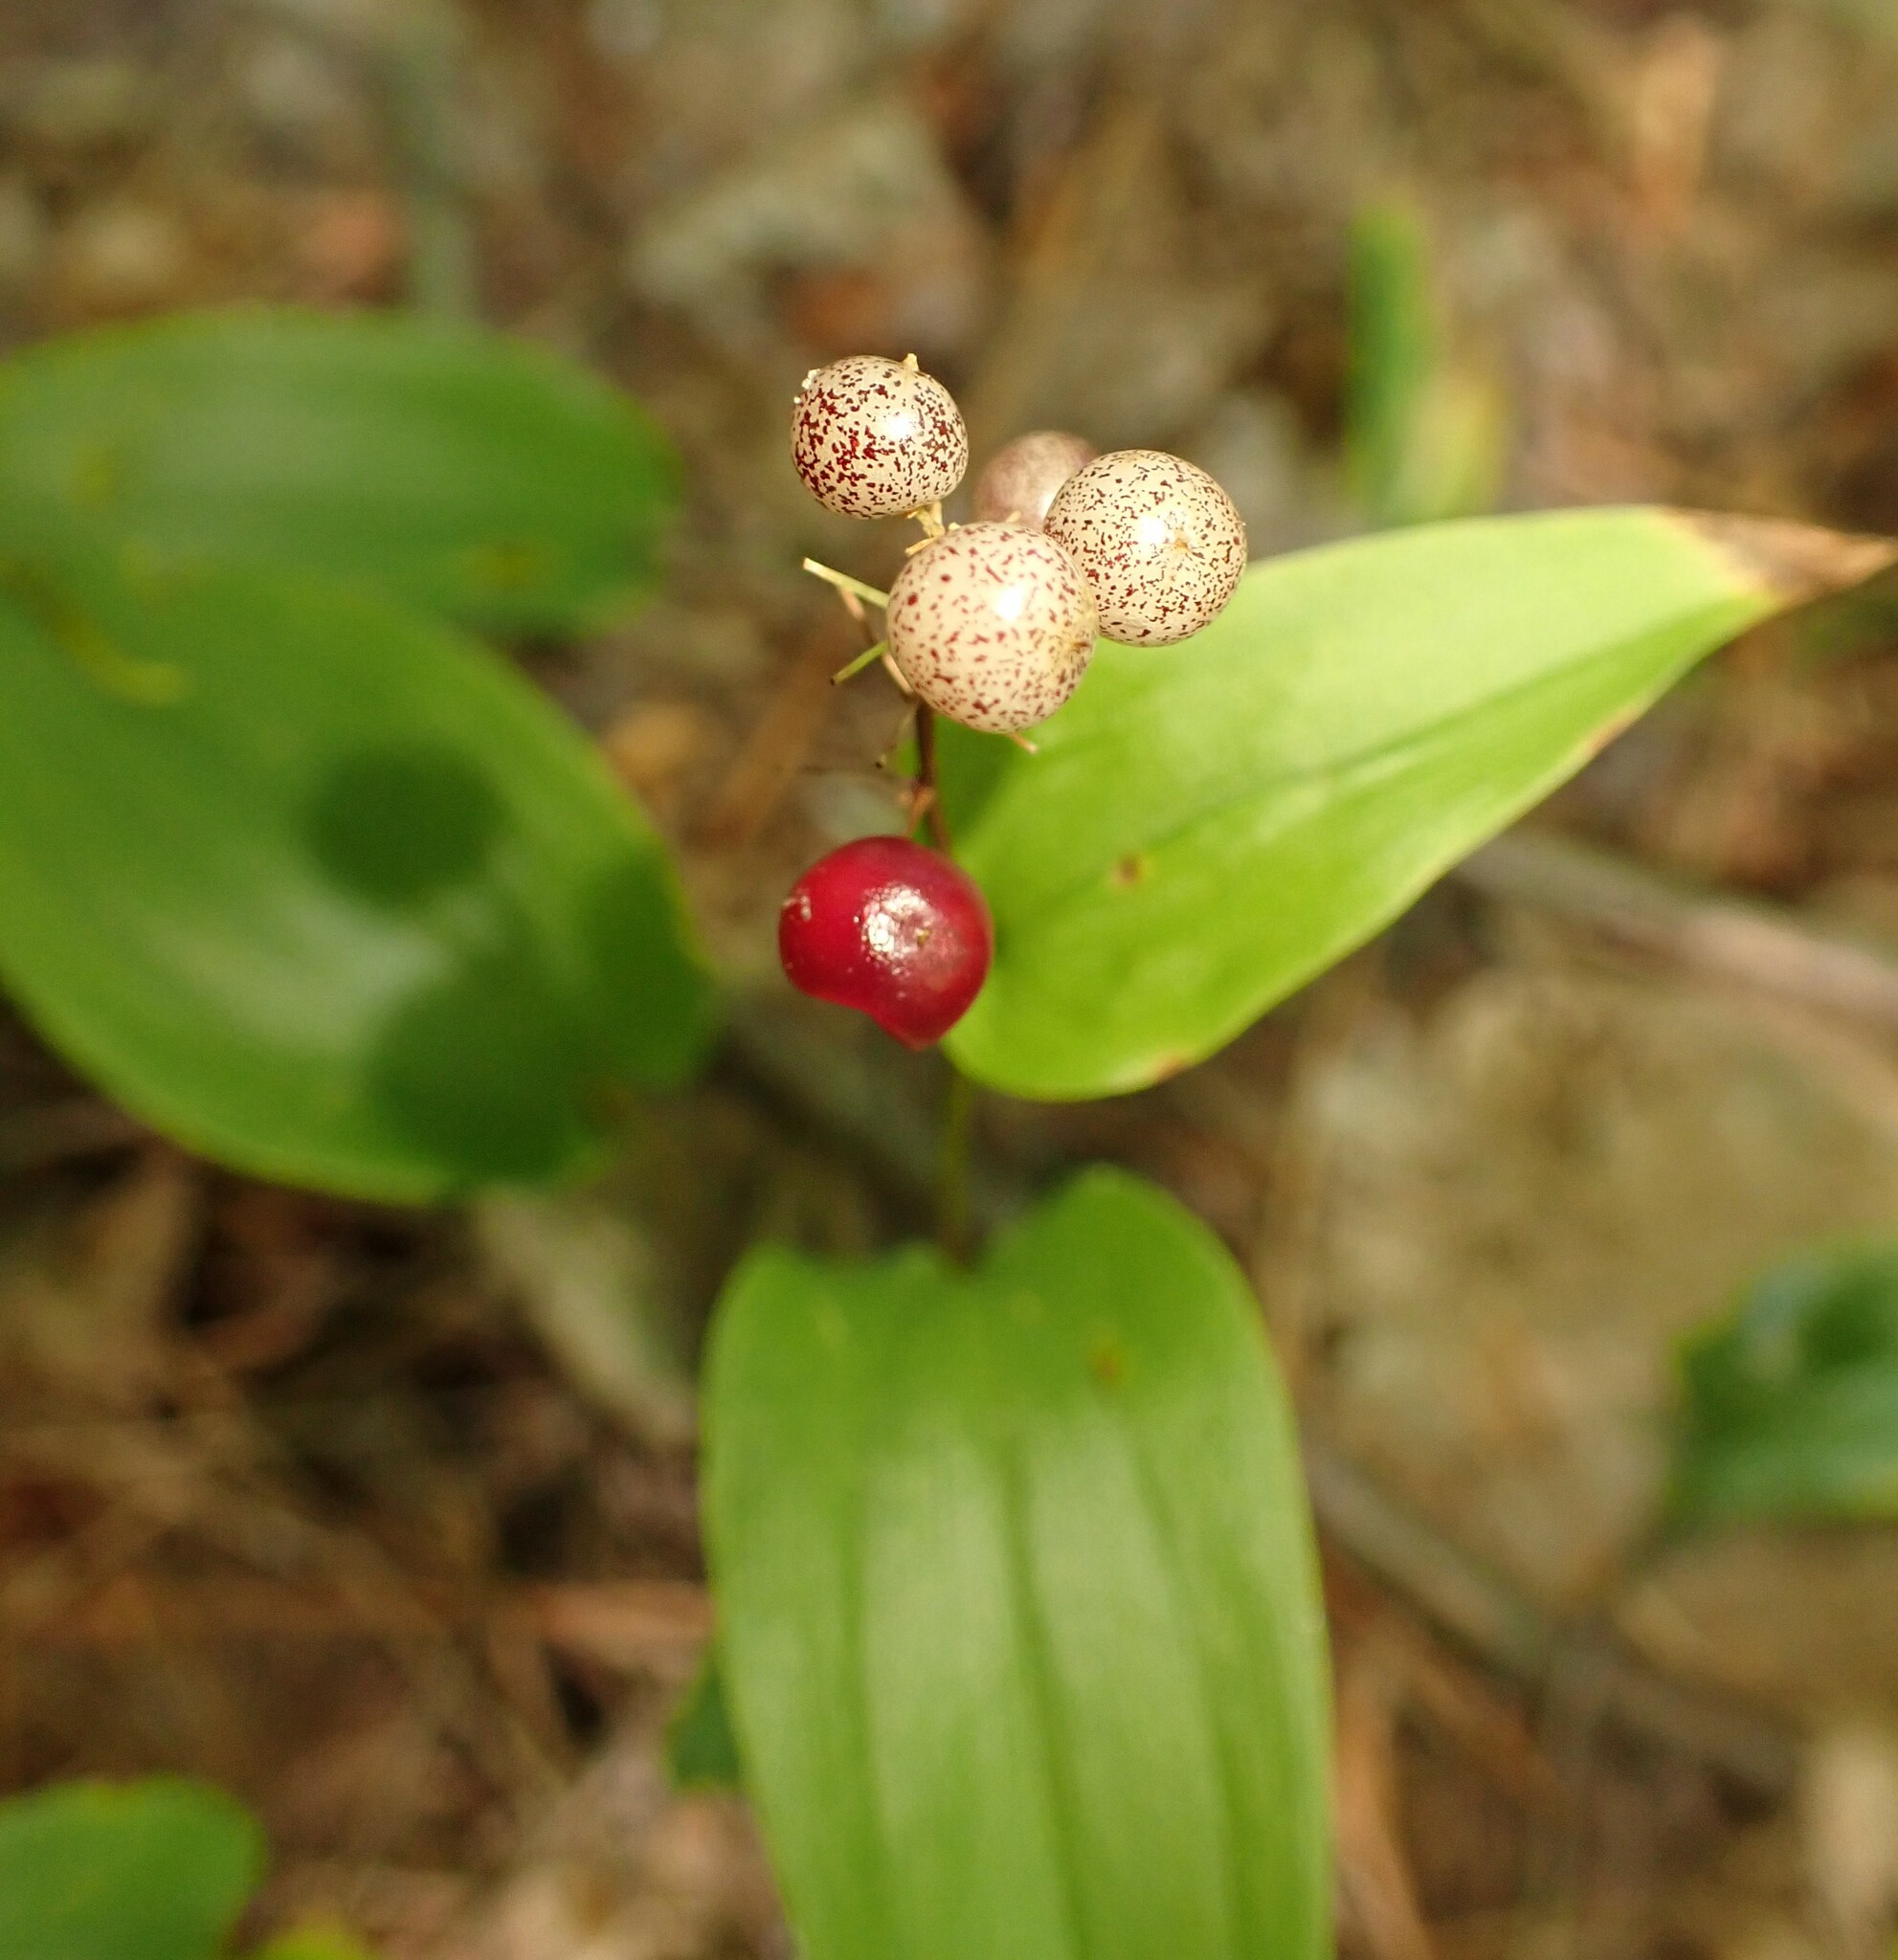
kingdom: Plantae
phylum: Tracheophyta
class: Liliopsida
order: Asparagales
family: Asparagaceae
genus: Maianthemum
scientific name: Maianthemum canadense
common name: False lily-of-the-valley
